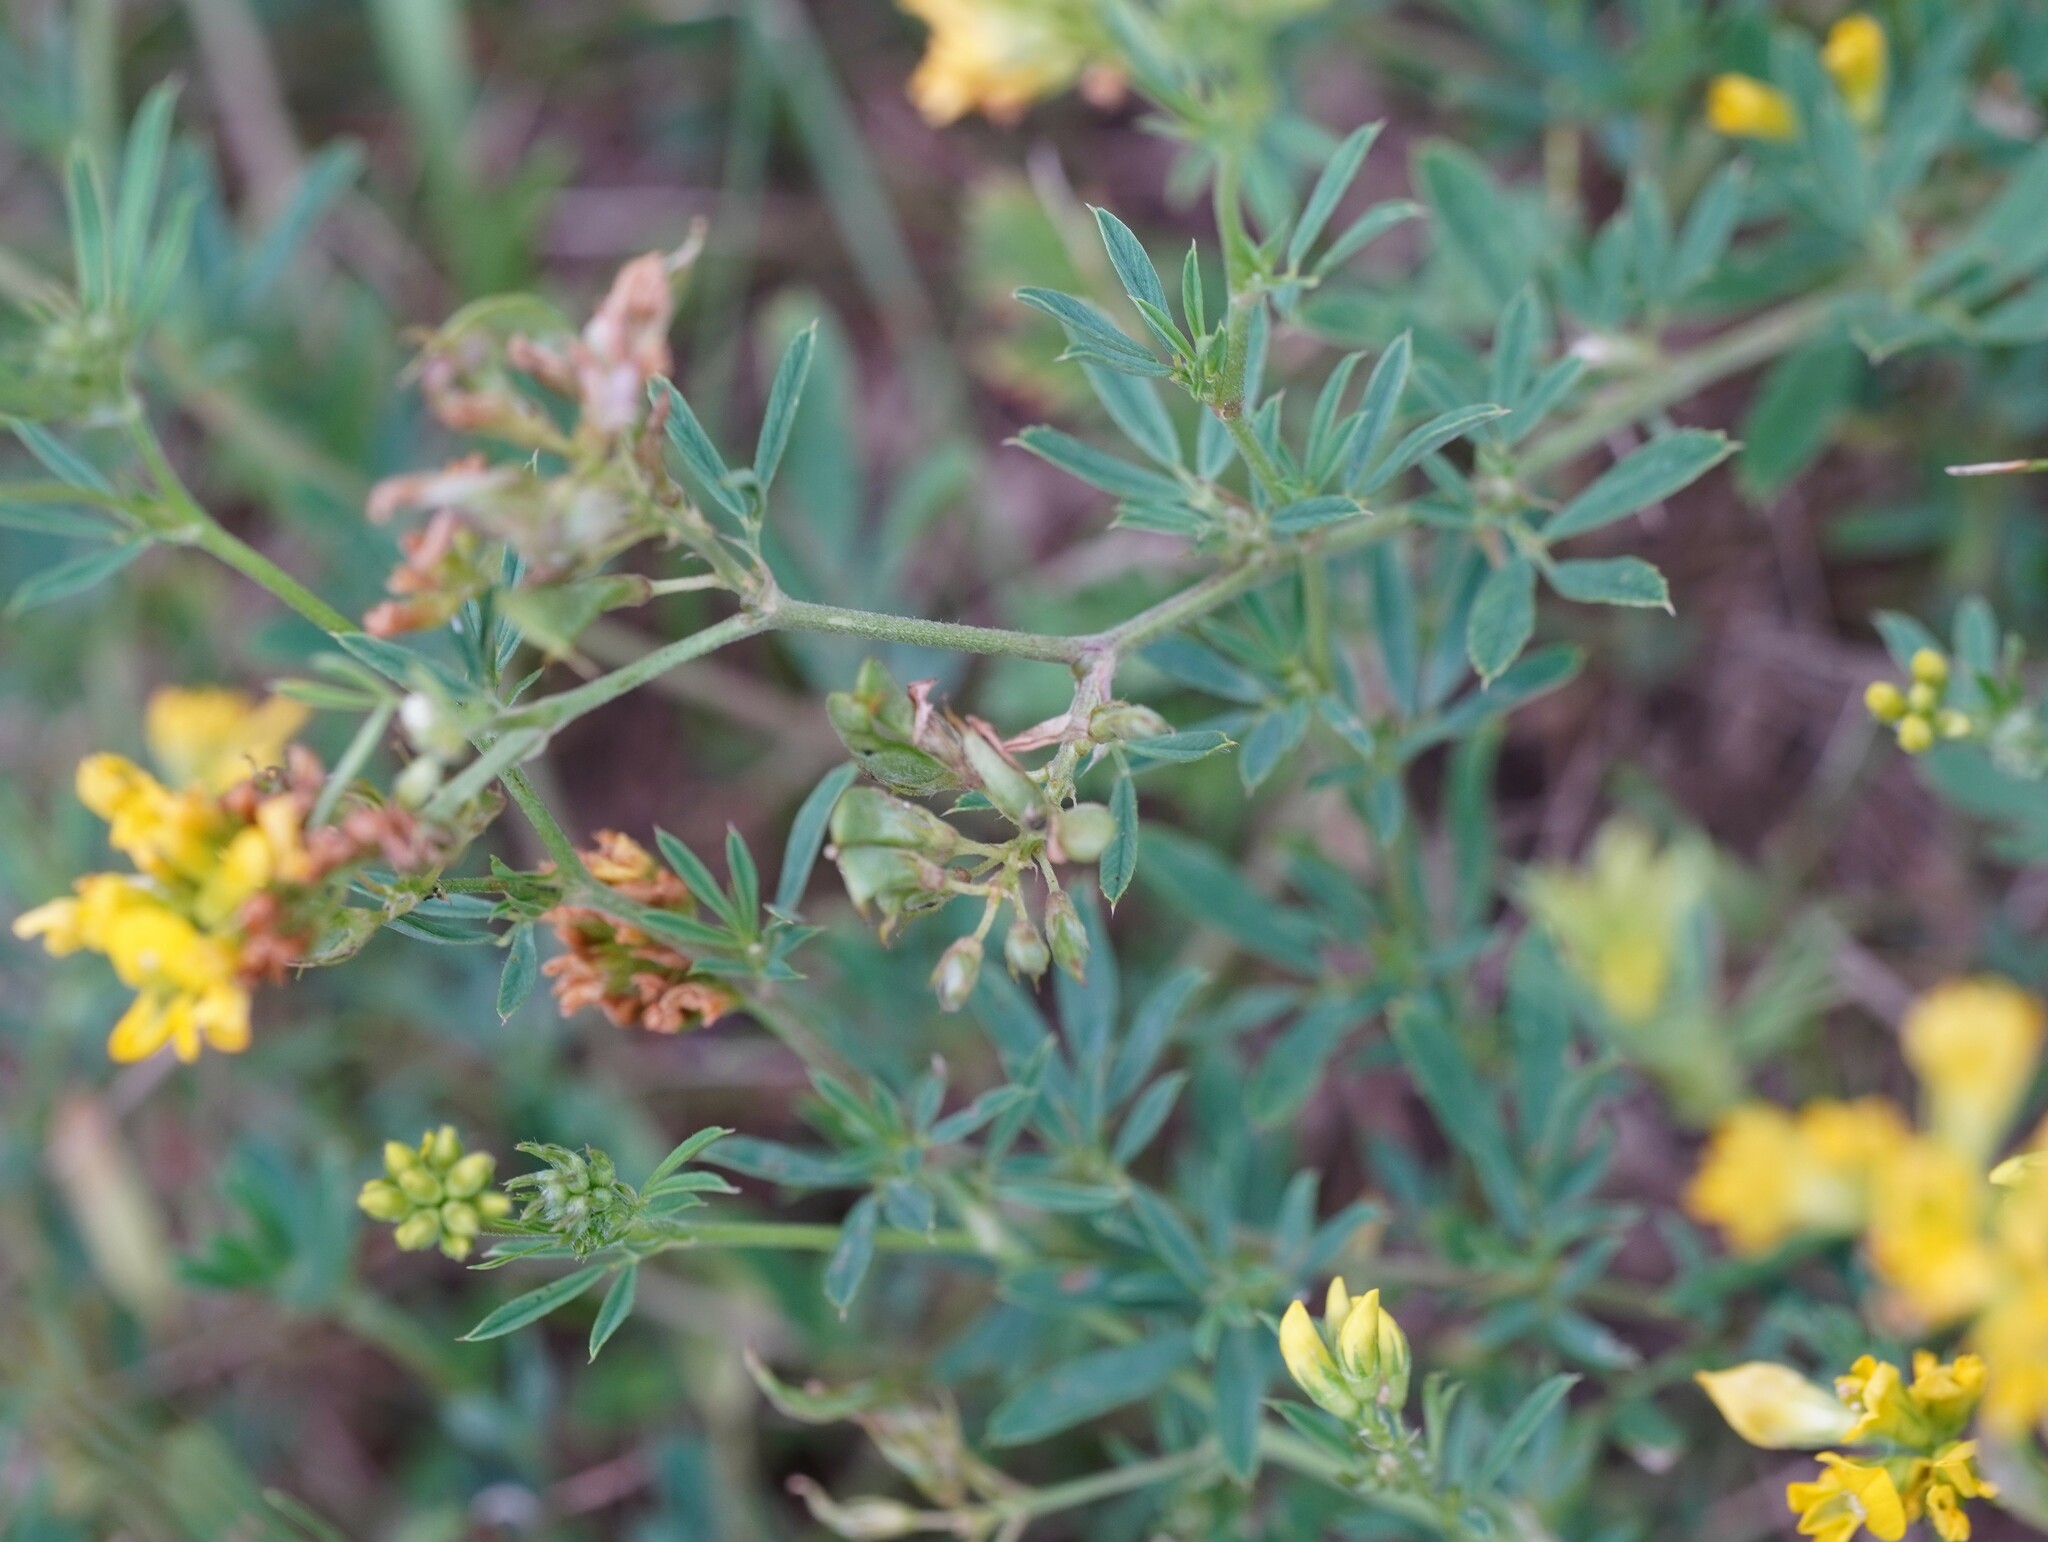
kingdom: Plantae
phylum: Tracheophyta
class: Magnoliopsida
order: Fabales
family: Fabaceae
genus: Medicago
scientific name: Medicago falcata
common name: Sickle medick
